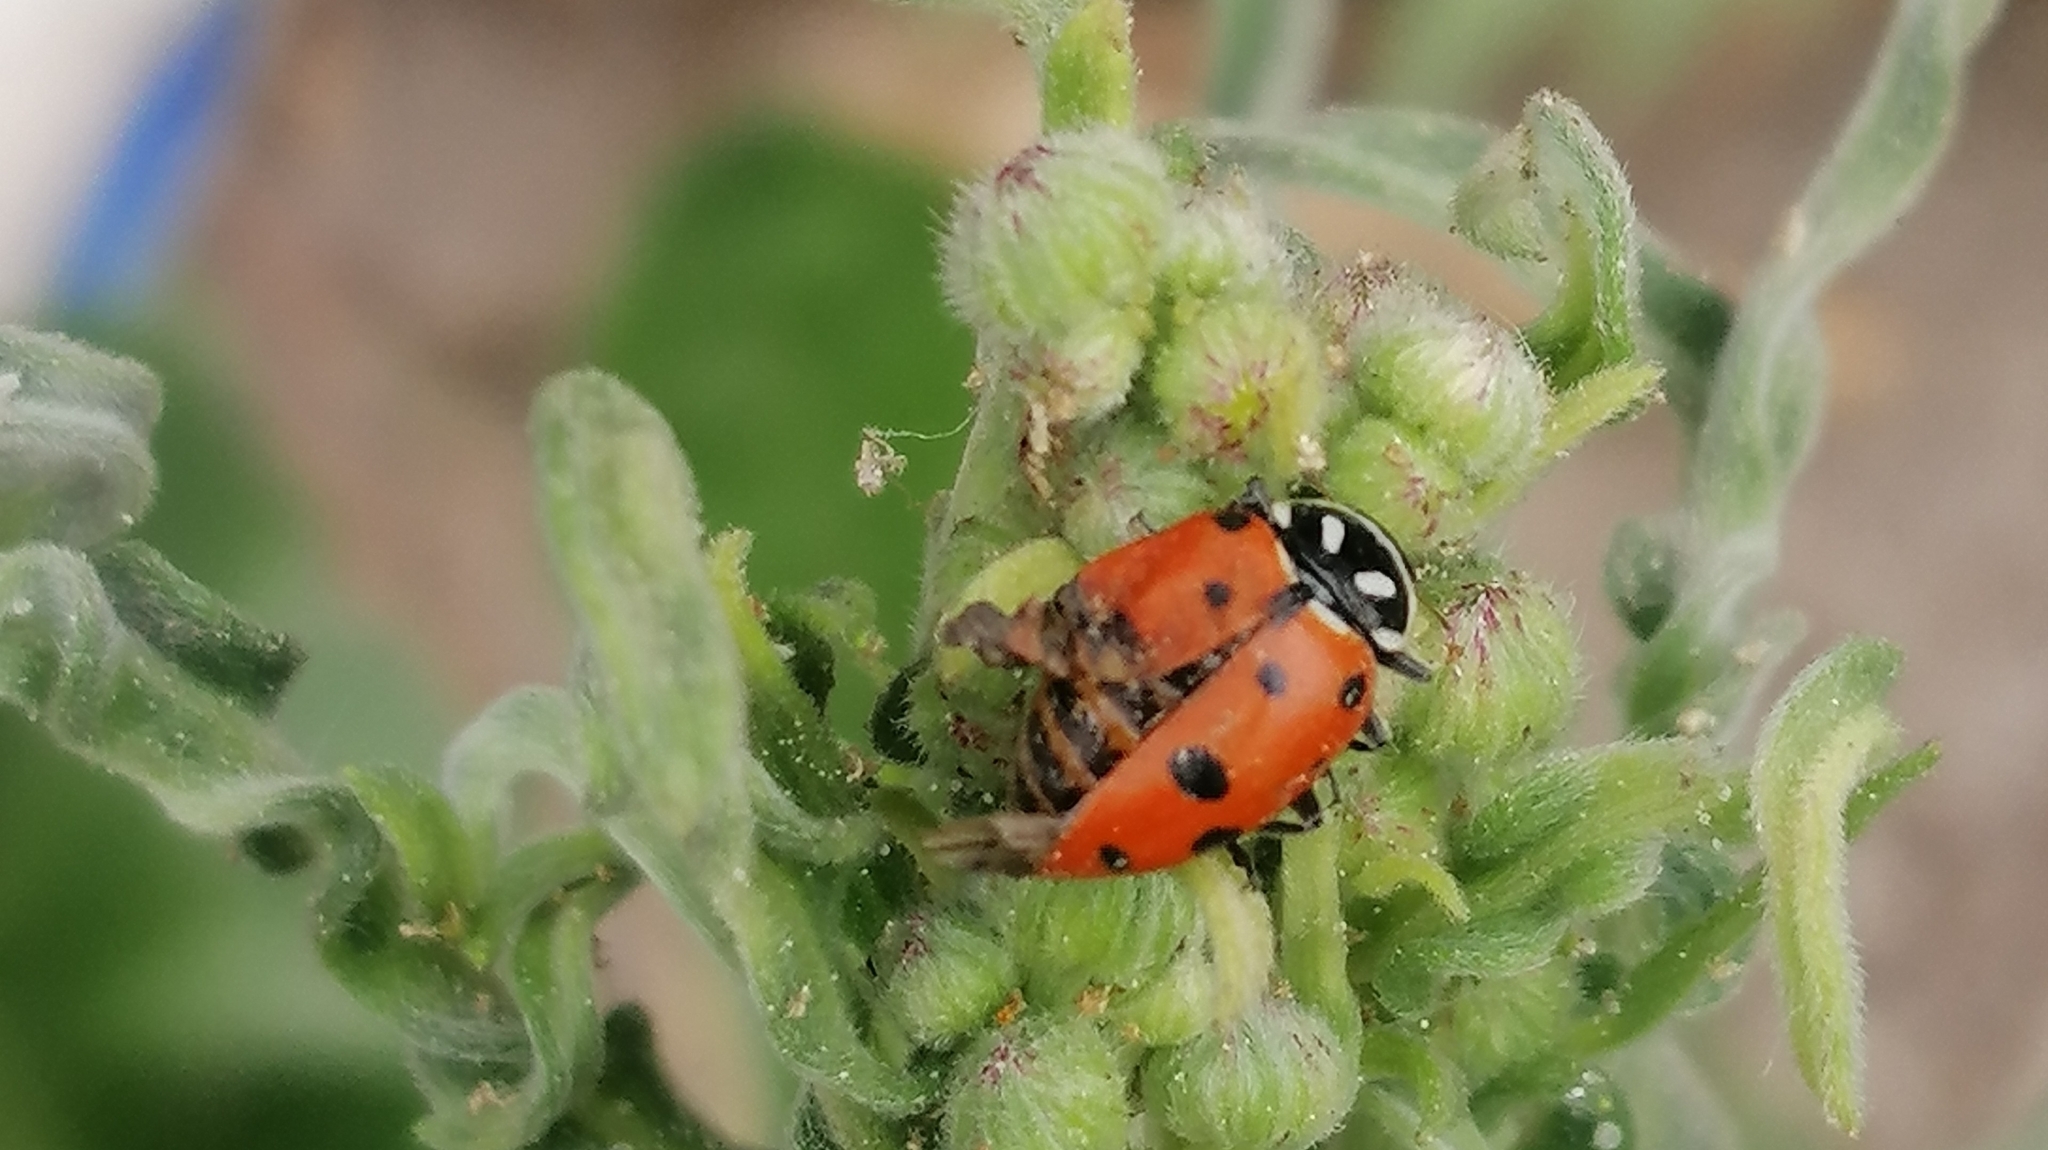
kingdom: Animalia
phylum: Arthropoda
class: Insecta
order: Coleoptera
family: Coccinellidae
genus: Hippodamia
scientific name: Hippodamia convergens
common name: Convergent lady beetle
